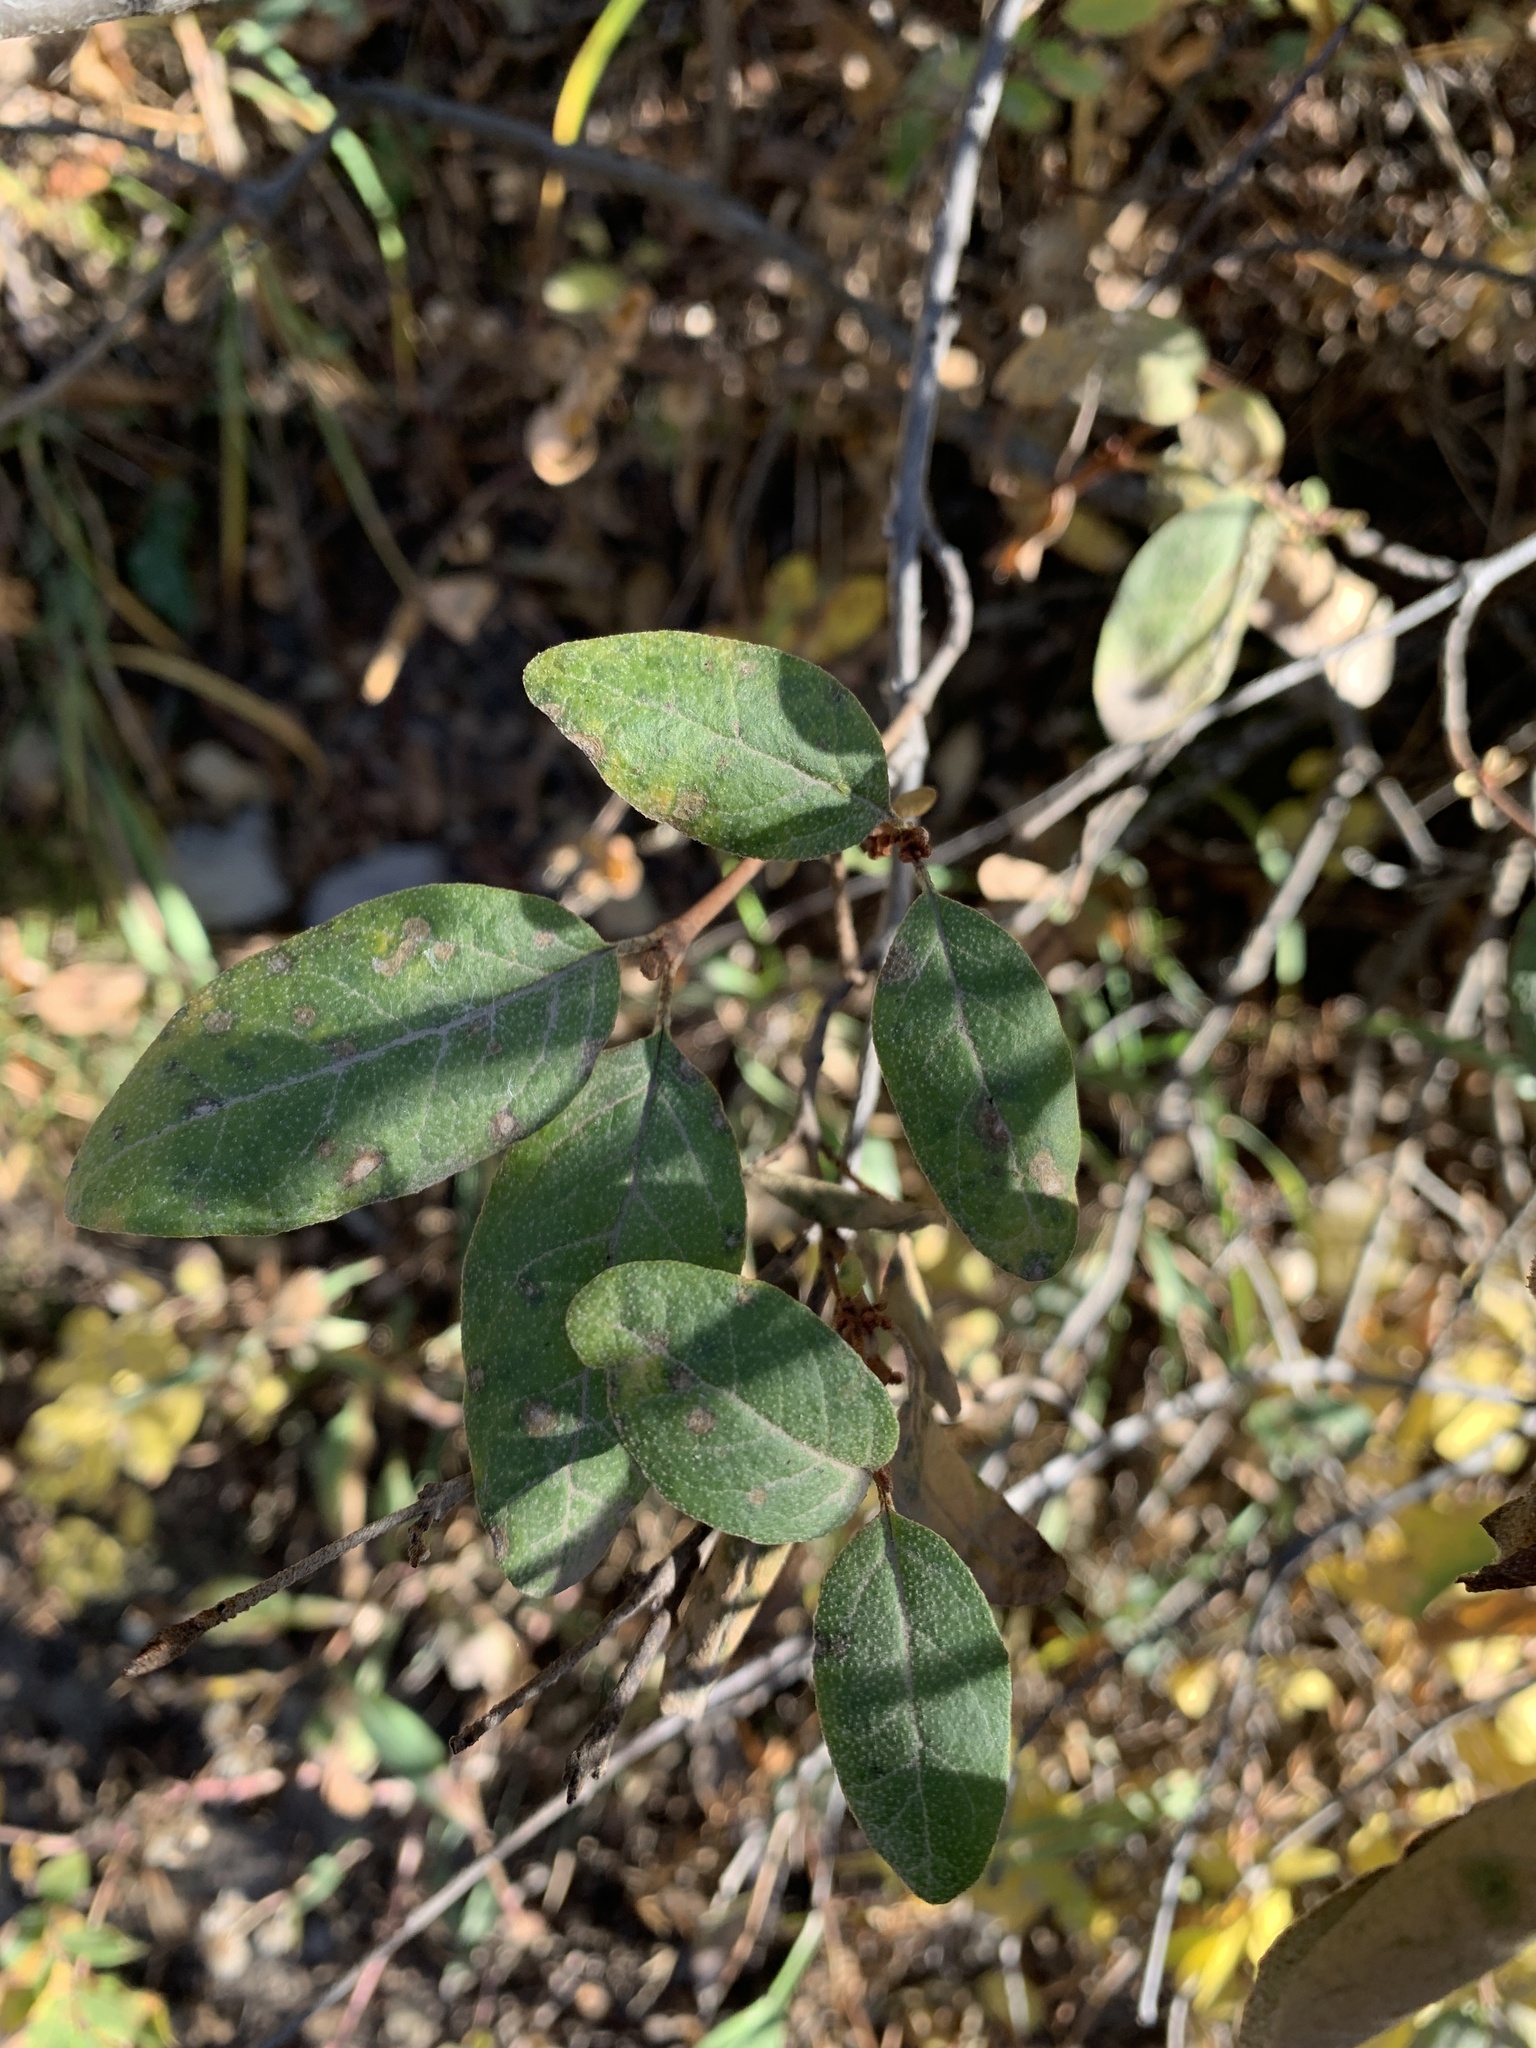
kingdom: Plantae
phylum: Tracheophyta
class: Magnoliopsida
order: Rosales
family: Elaeagnaceae
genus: Shepherdia
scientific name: Shepherdia canadensis
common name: Soapberry
